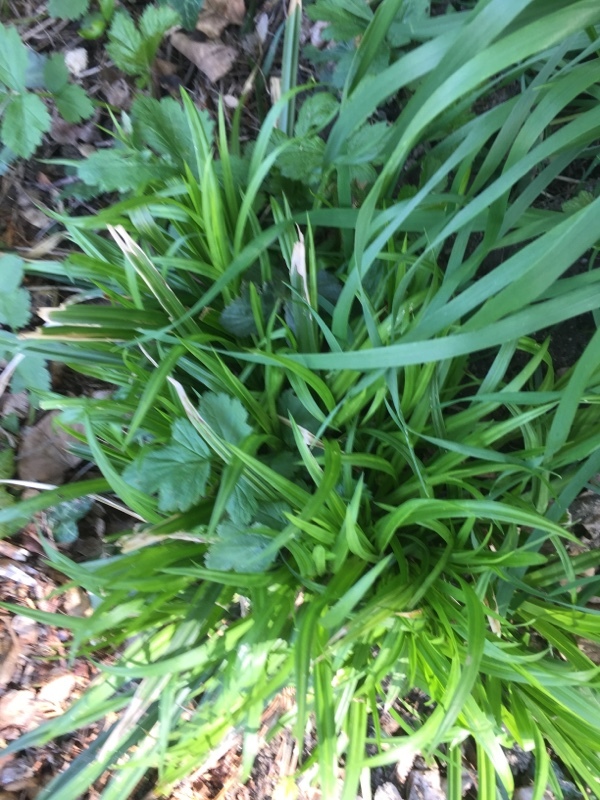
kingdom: Plantae
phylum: Tracheophyta
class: Liliopsida
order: Poales
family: Cyperaceae
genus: Carex
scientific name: Carex sylvatica
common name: Wood-sedge
